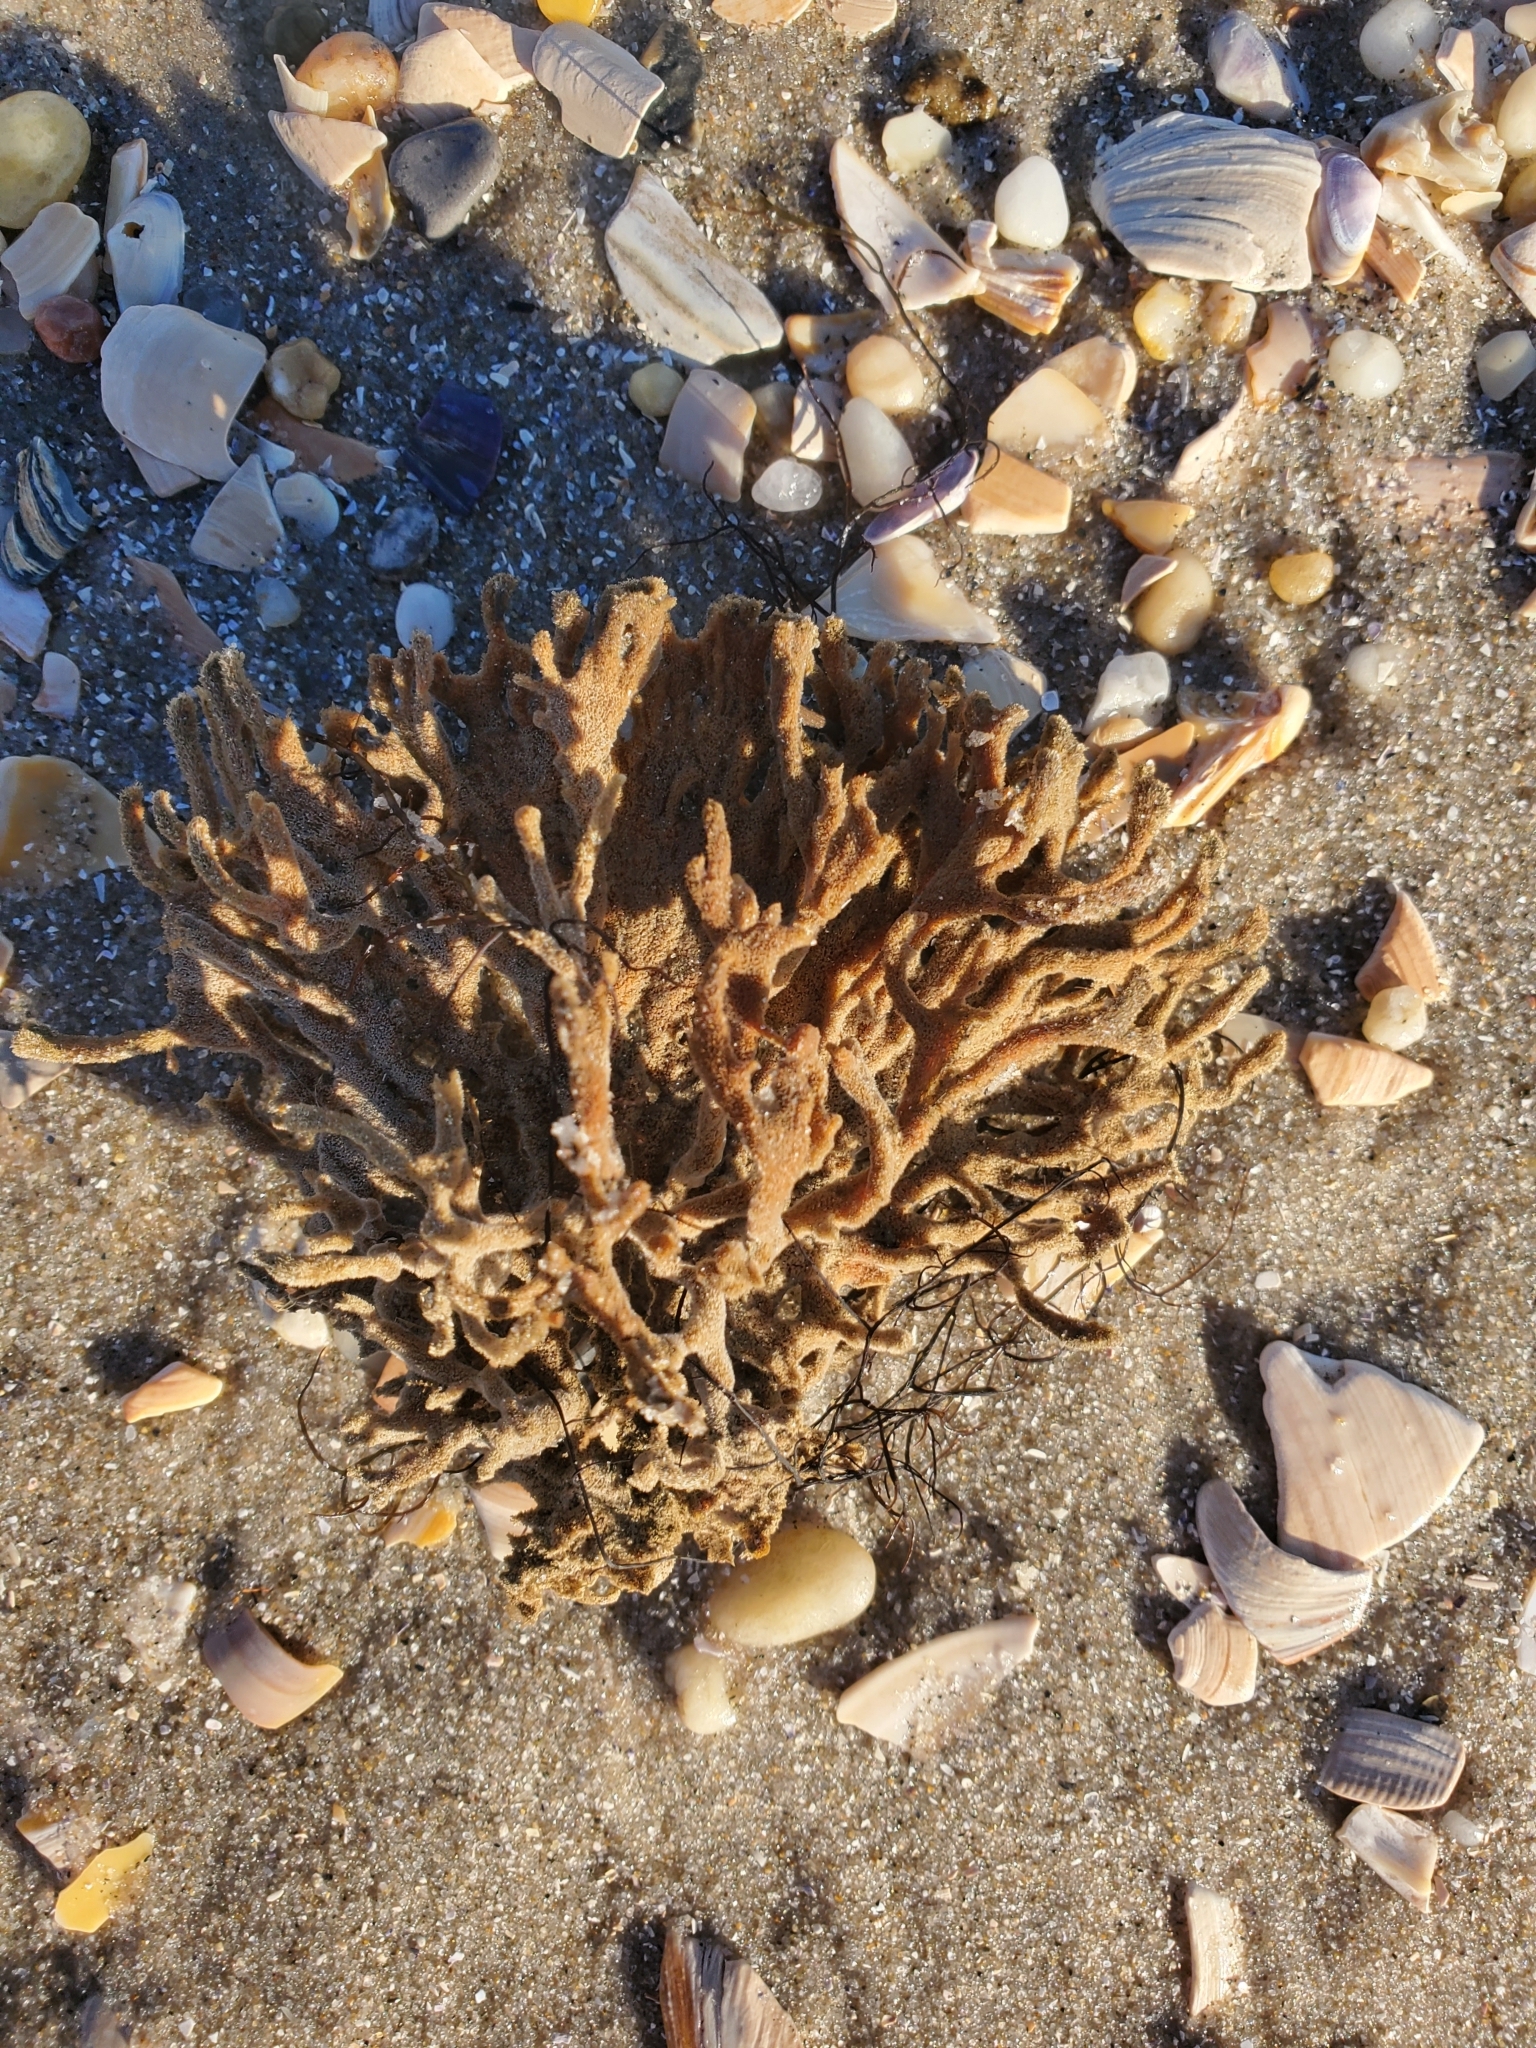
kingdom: Animalia
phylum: Porifera
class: Demospongiae
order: Poecilosclerida
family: Microcionidae
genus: Clathria
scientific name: Clathria prolifera
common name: Red beard sponge
